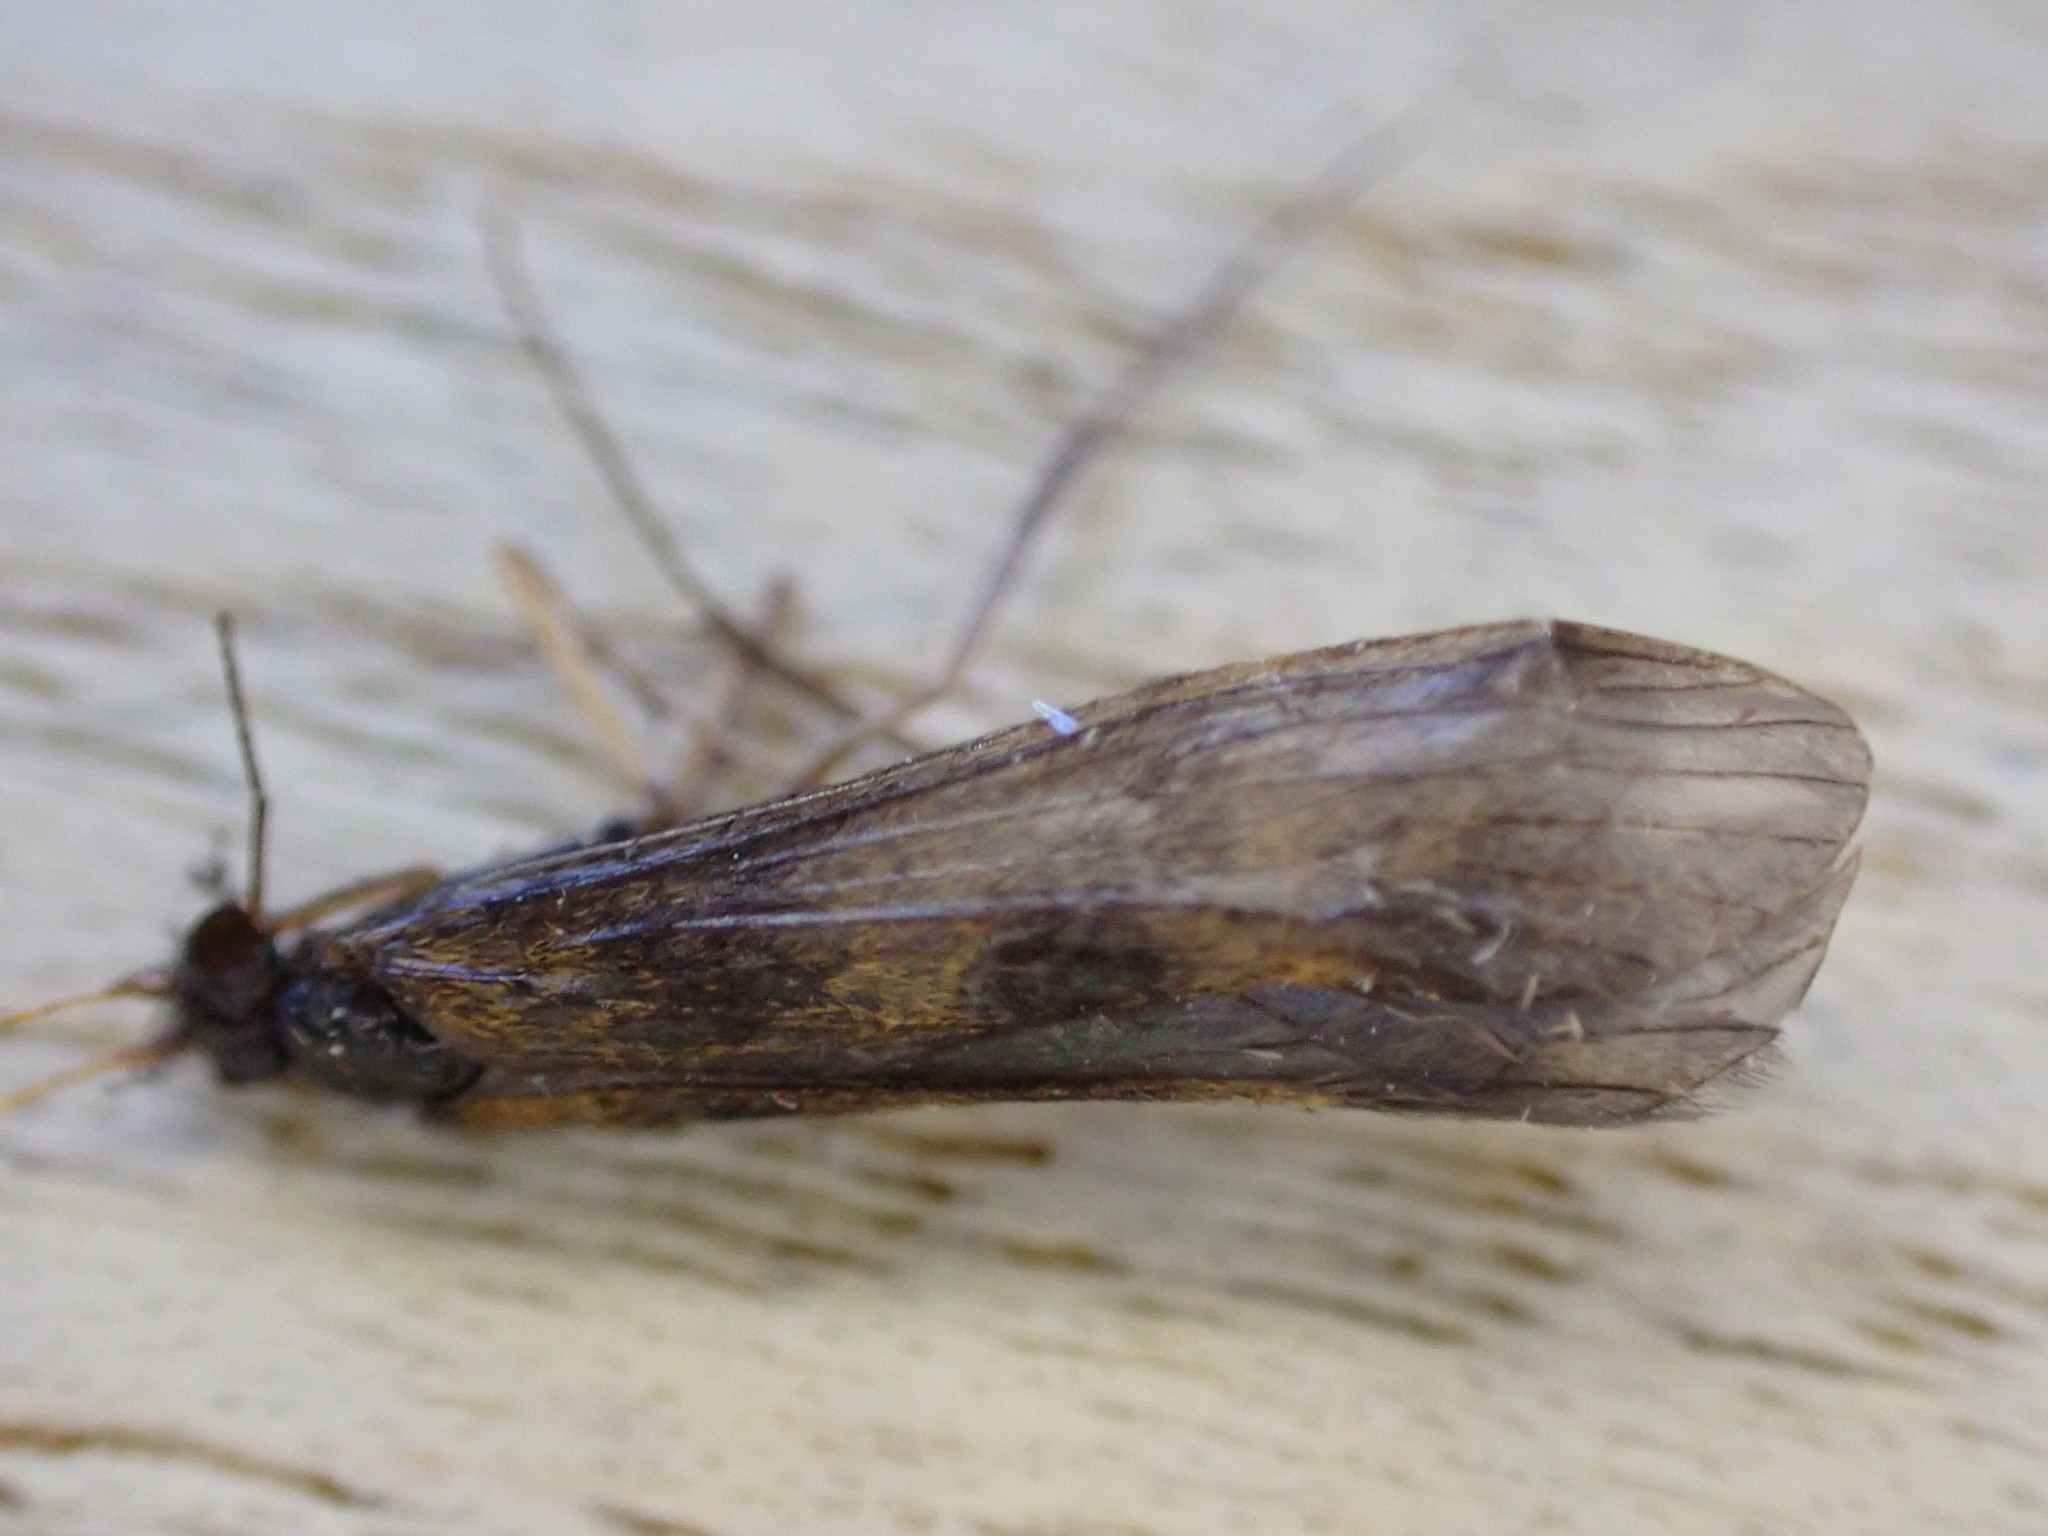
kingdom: Animalia
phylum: Arthropoda
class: Insecta
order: Trichoptera
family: Leptoceridae
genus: Mystacides
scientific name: Mystacides longicornis
